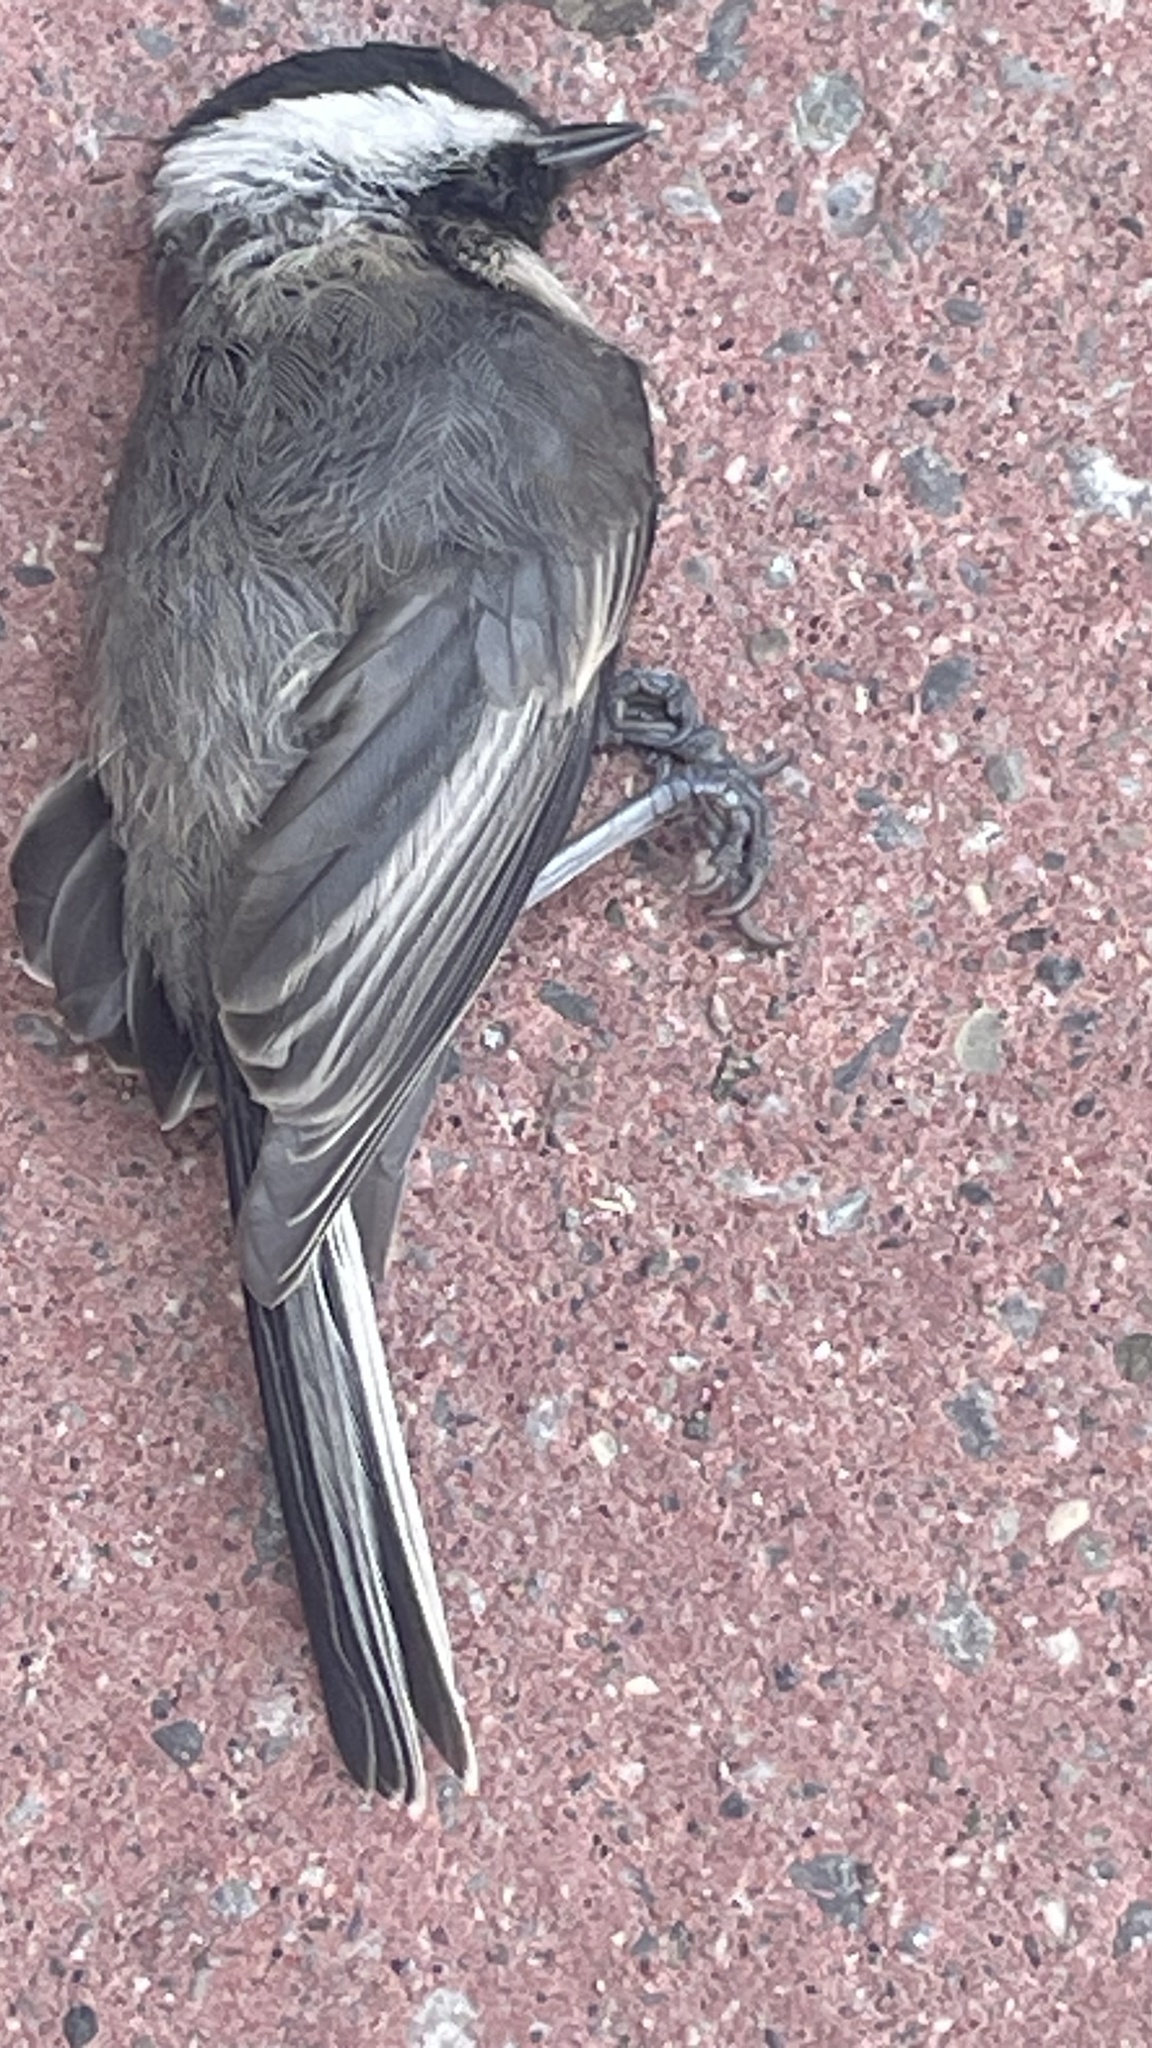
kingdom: Animalia
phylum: Chordata
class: Aves
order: Passeriformes
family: Paridae
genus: Poecile
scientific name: Poecile atricapillus
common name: Black-capped chickadee
